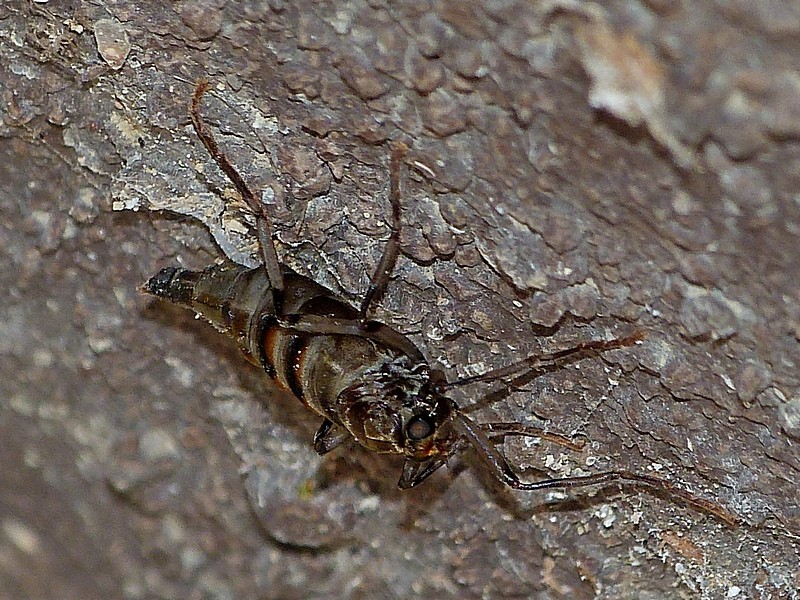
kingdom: Animalia
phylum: Arthropoda
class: Insecta
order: Diptera
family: Stratiomyidae
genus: Boreoides
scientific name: Boreoides subulatus
